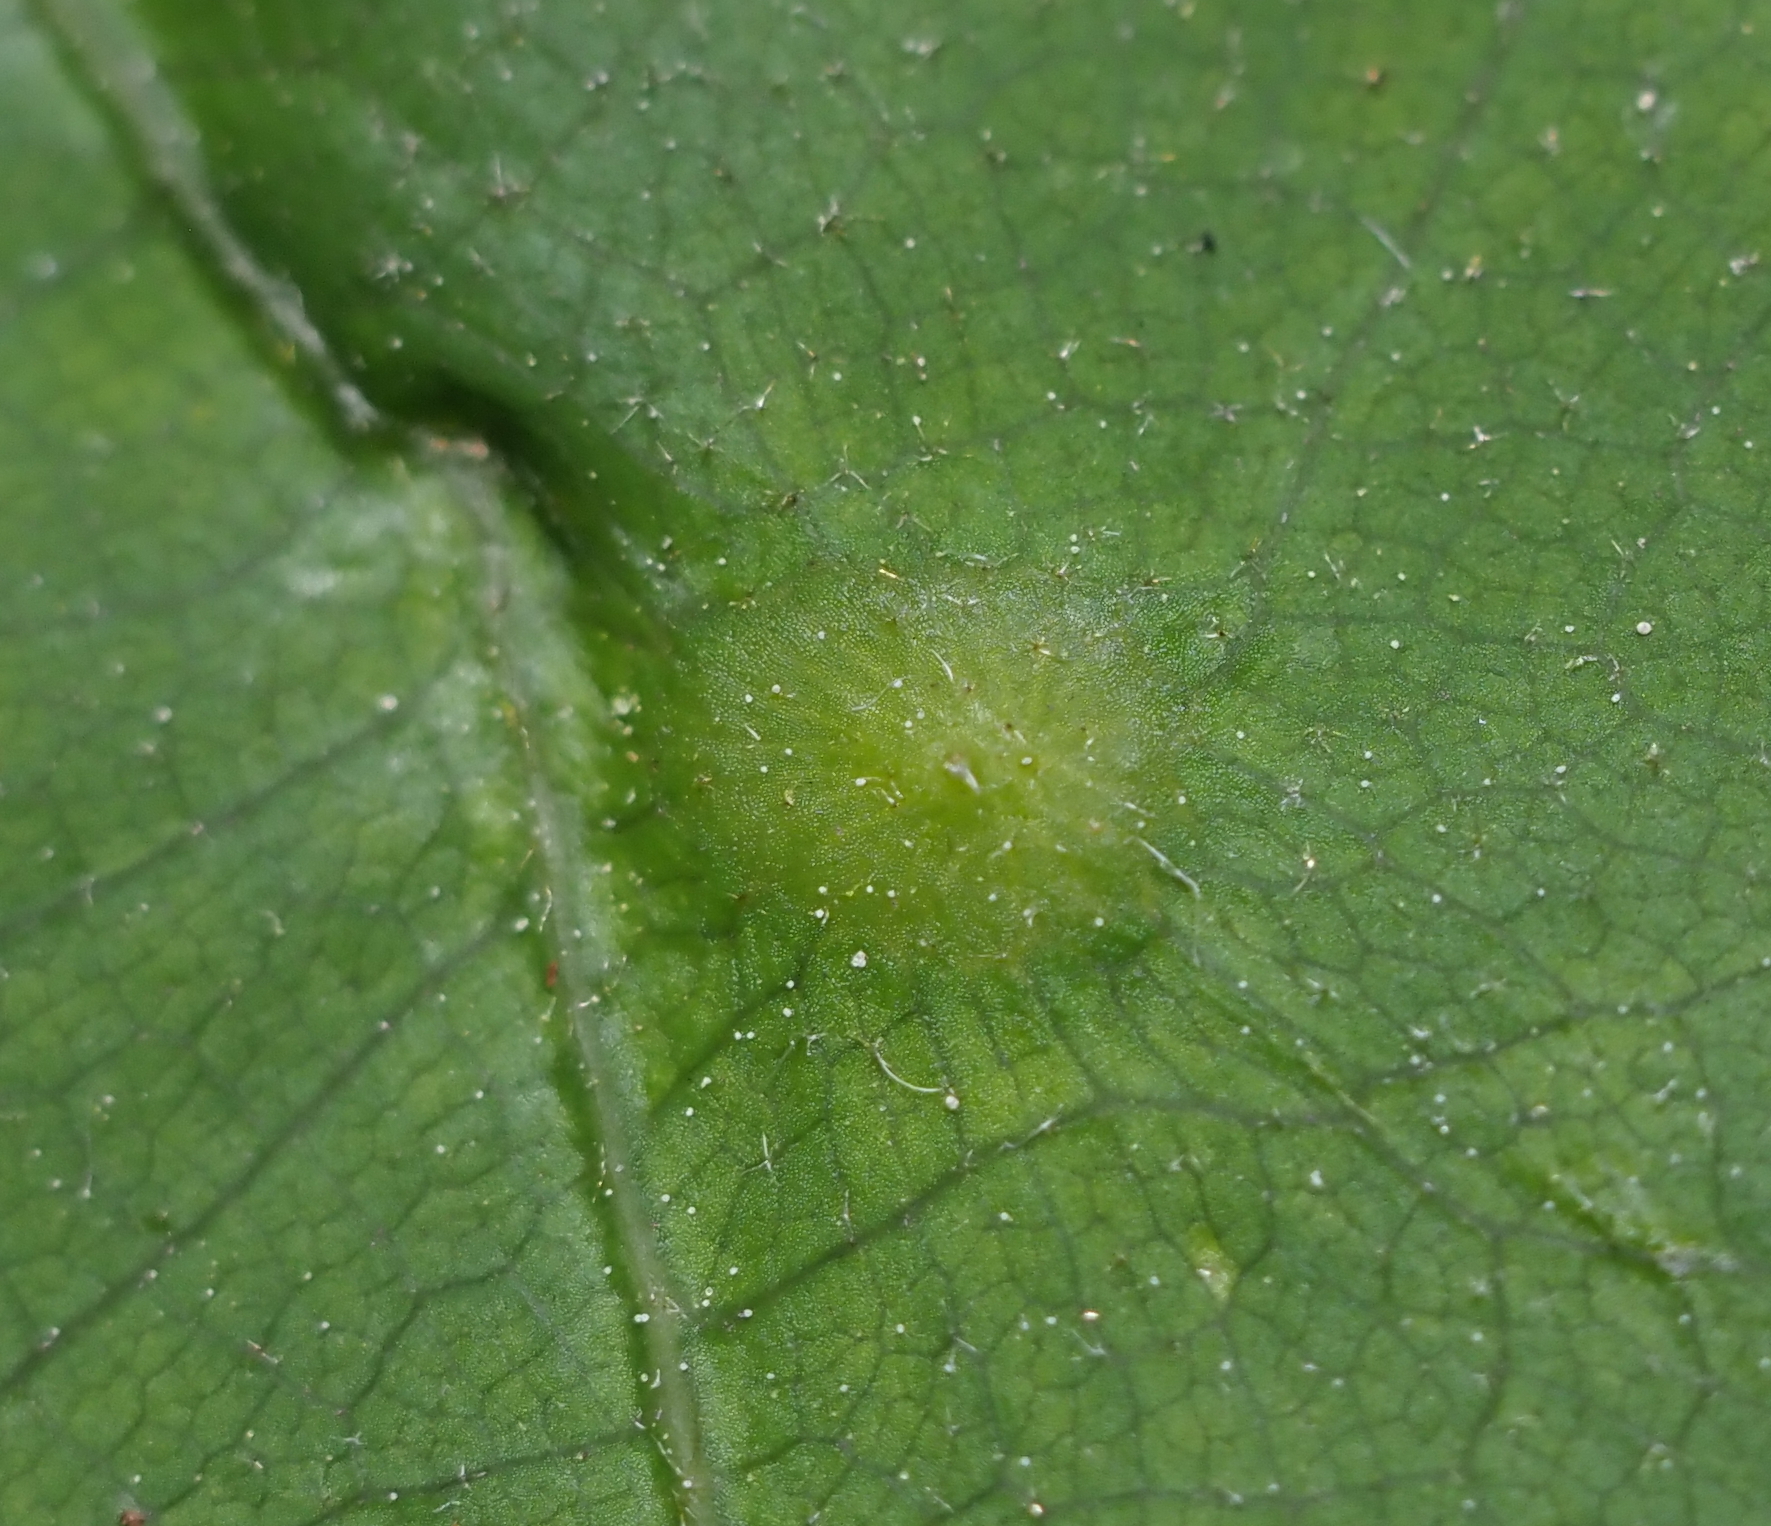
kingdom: Animalia
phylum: Arthropoda
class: Insecta
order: Hymenoptera
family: Cynipidae
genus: Dryocosmus
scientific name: Dryocosmus
